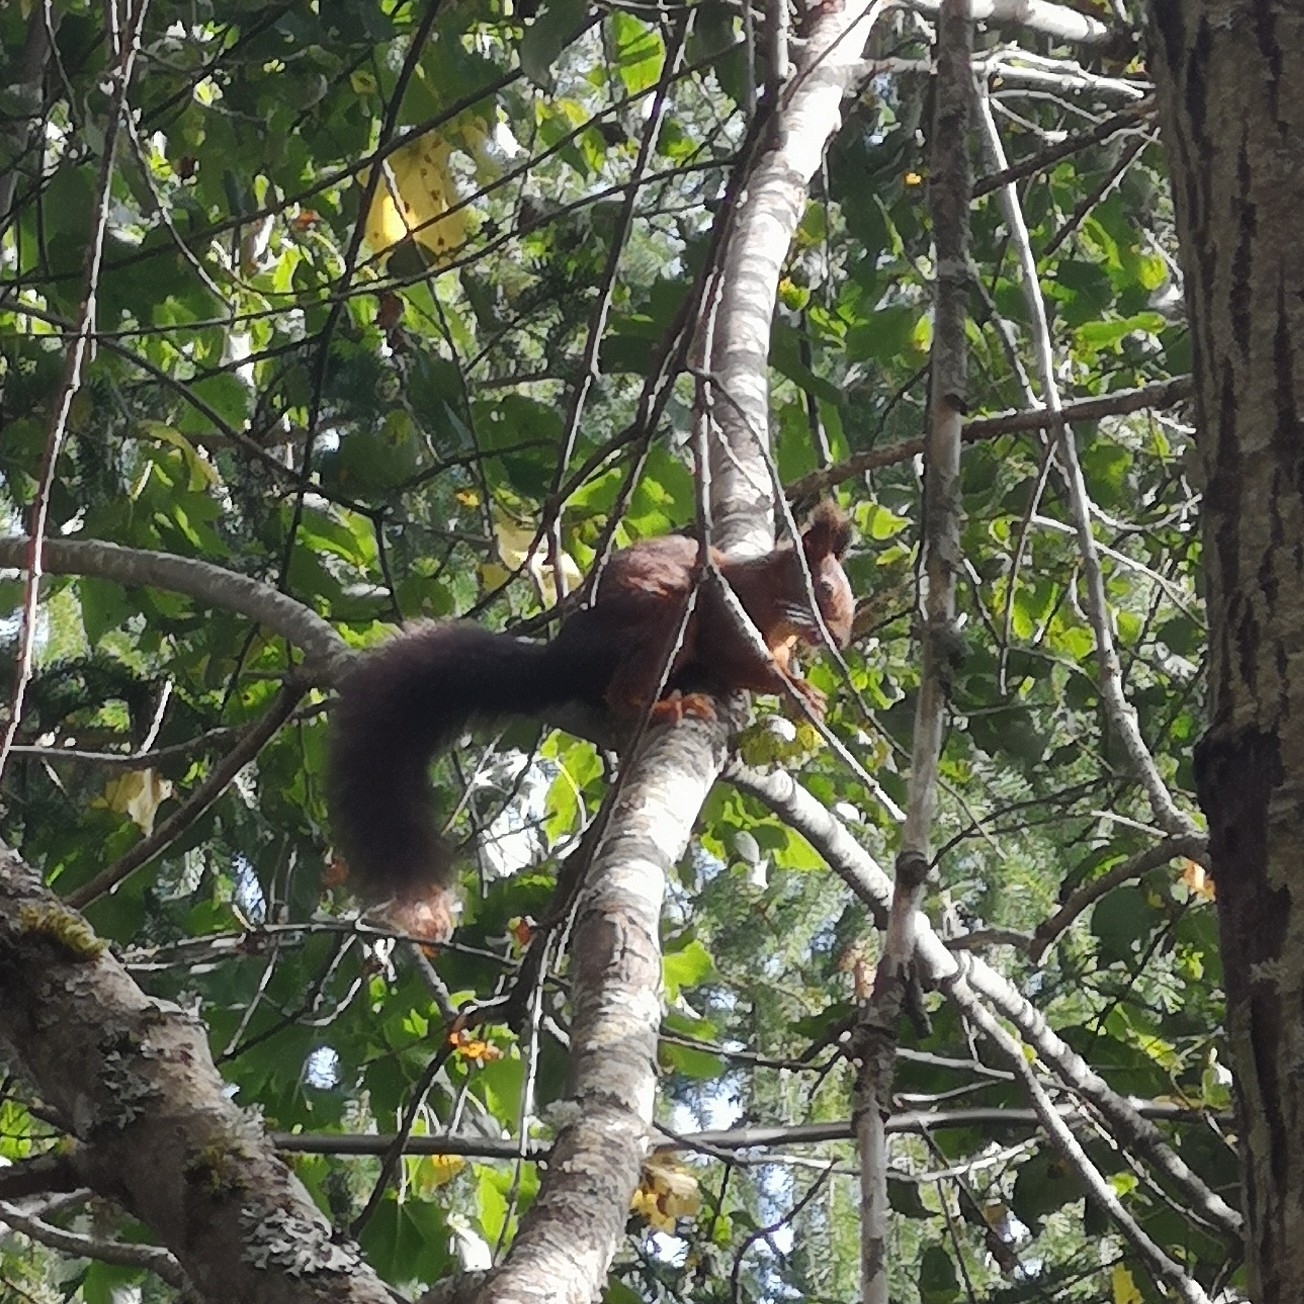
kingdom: Animalia
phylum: Chordata
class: Mammalia
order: Rodentia
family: Sciuridae
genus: Sciurus
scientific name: Sciurus vulgaris
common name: Eurasian red squirrel
